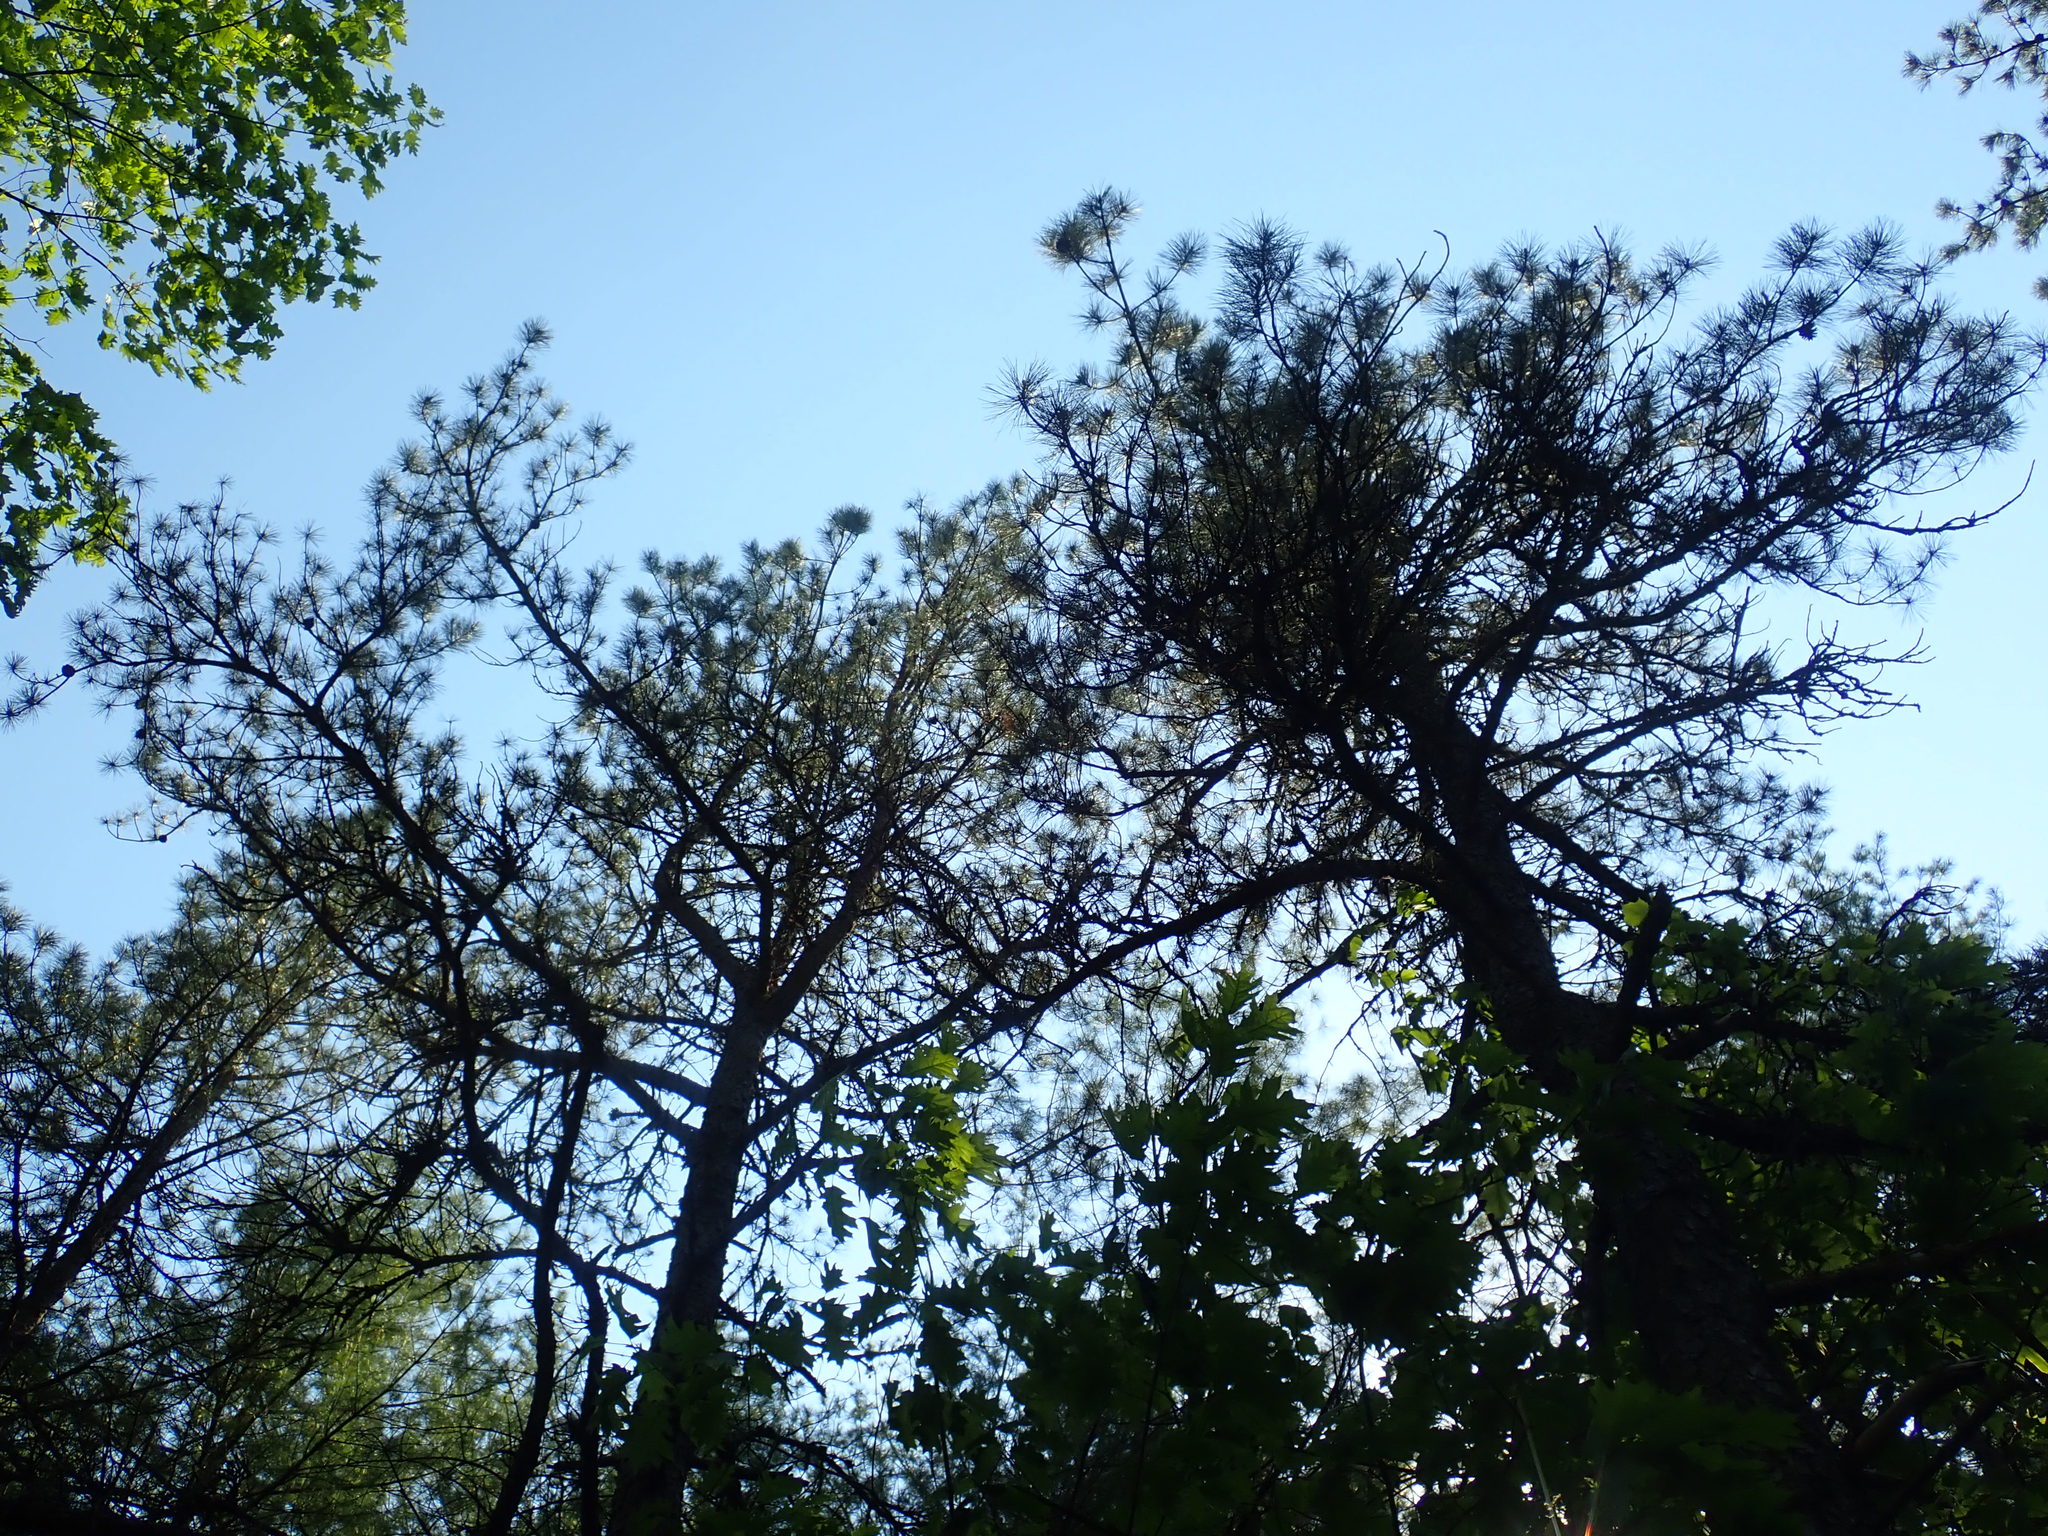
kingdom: Plantae
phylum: Tracheophyta
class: Pinopsida
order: Pinales
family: Pinaceae
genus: Pinus
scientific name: Pinus rigida
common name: Pitch pine
